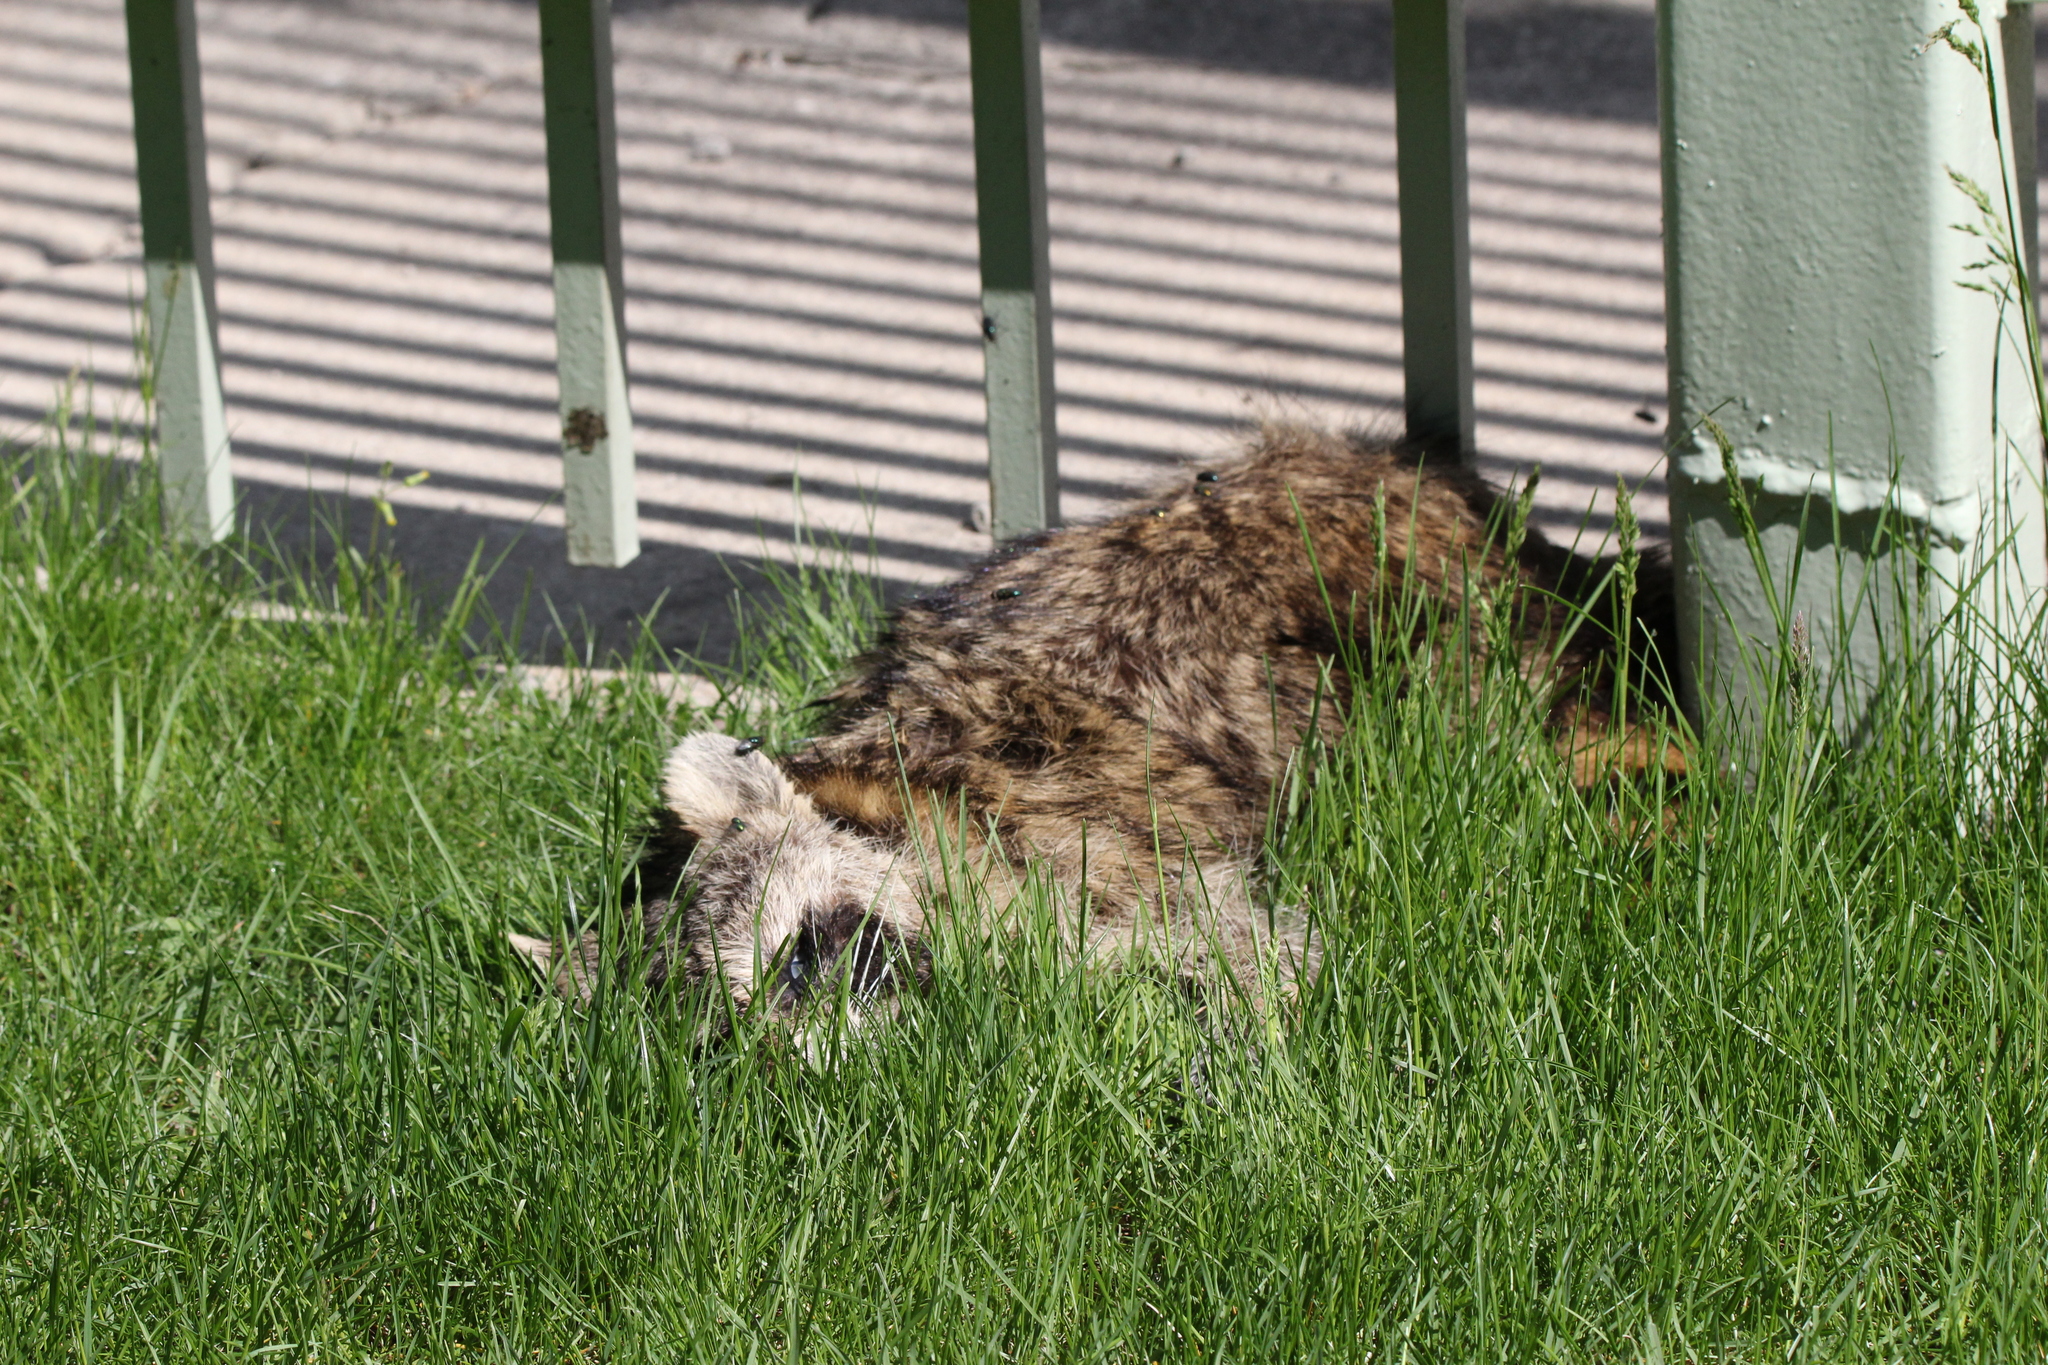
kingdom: Animalia
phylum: Chordata
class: Mammalia
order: Carnivora
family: Procyonidae
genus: Procyon
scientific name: Procyon lotor
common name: Raccoon
